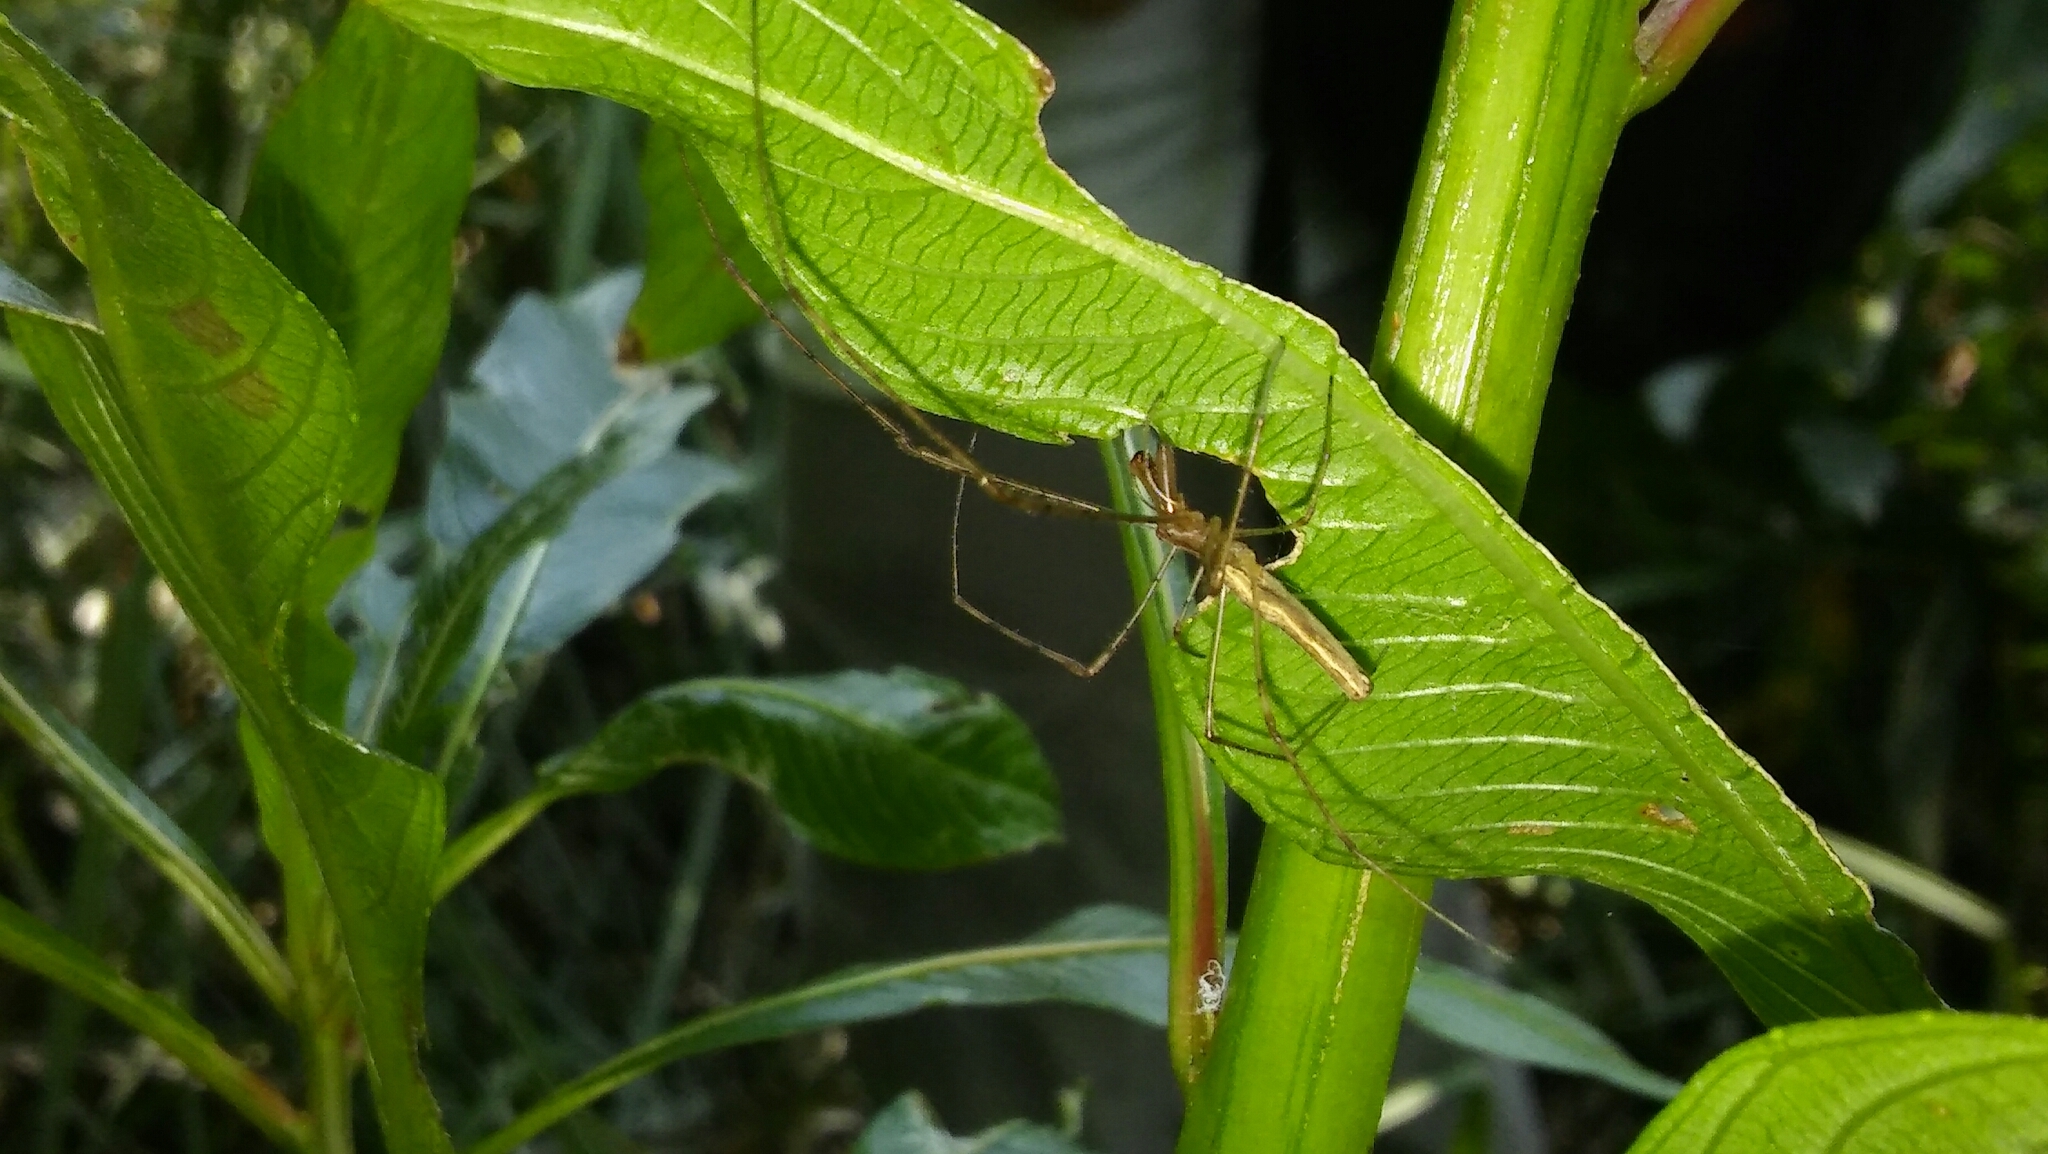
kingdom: Animalia
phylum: Arthropoda
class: Arachnida
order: Araneae
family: Tetragnathidae
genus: Tetragnatha
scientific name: Tetragnatha
